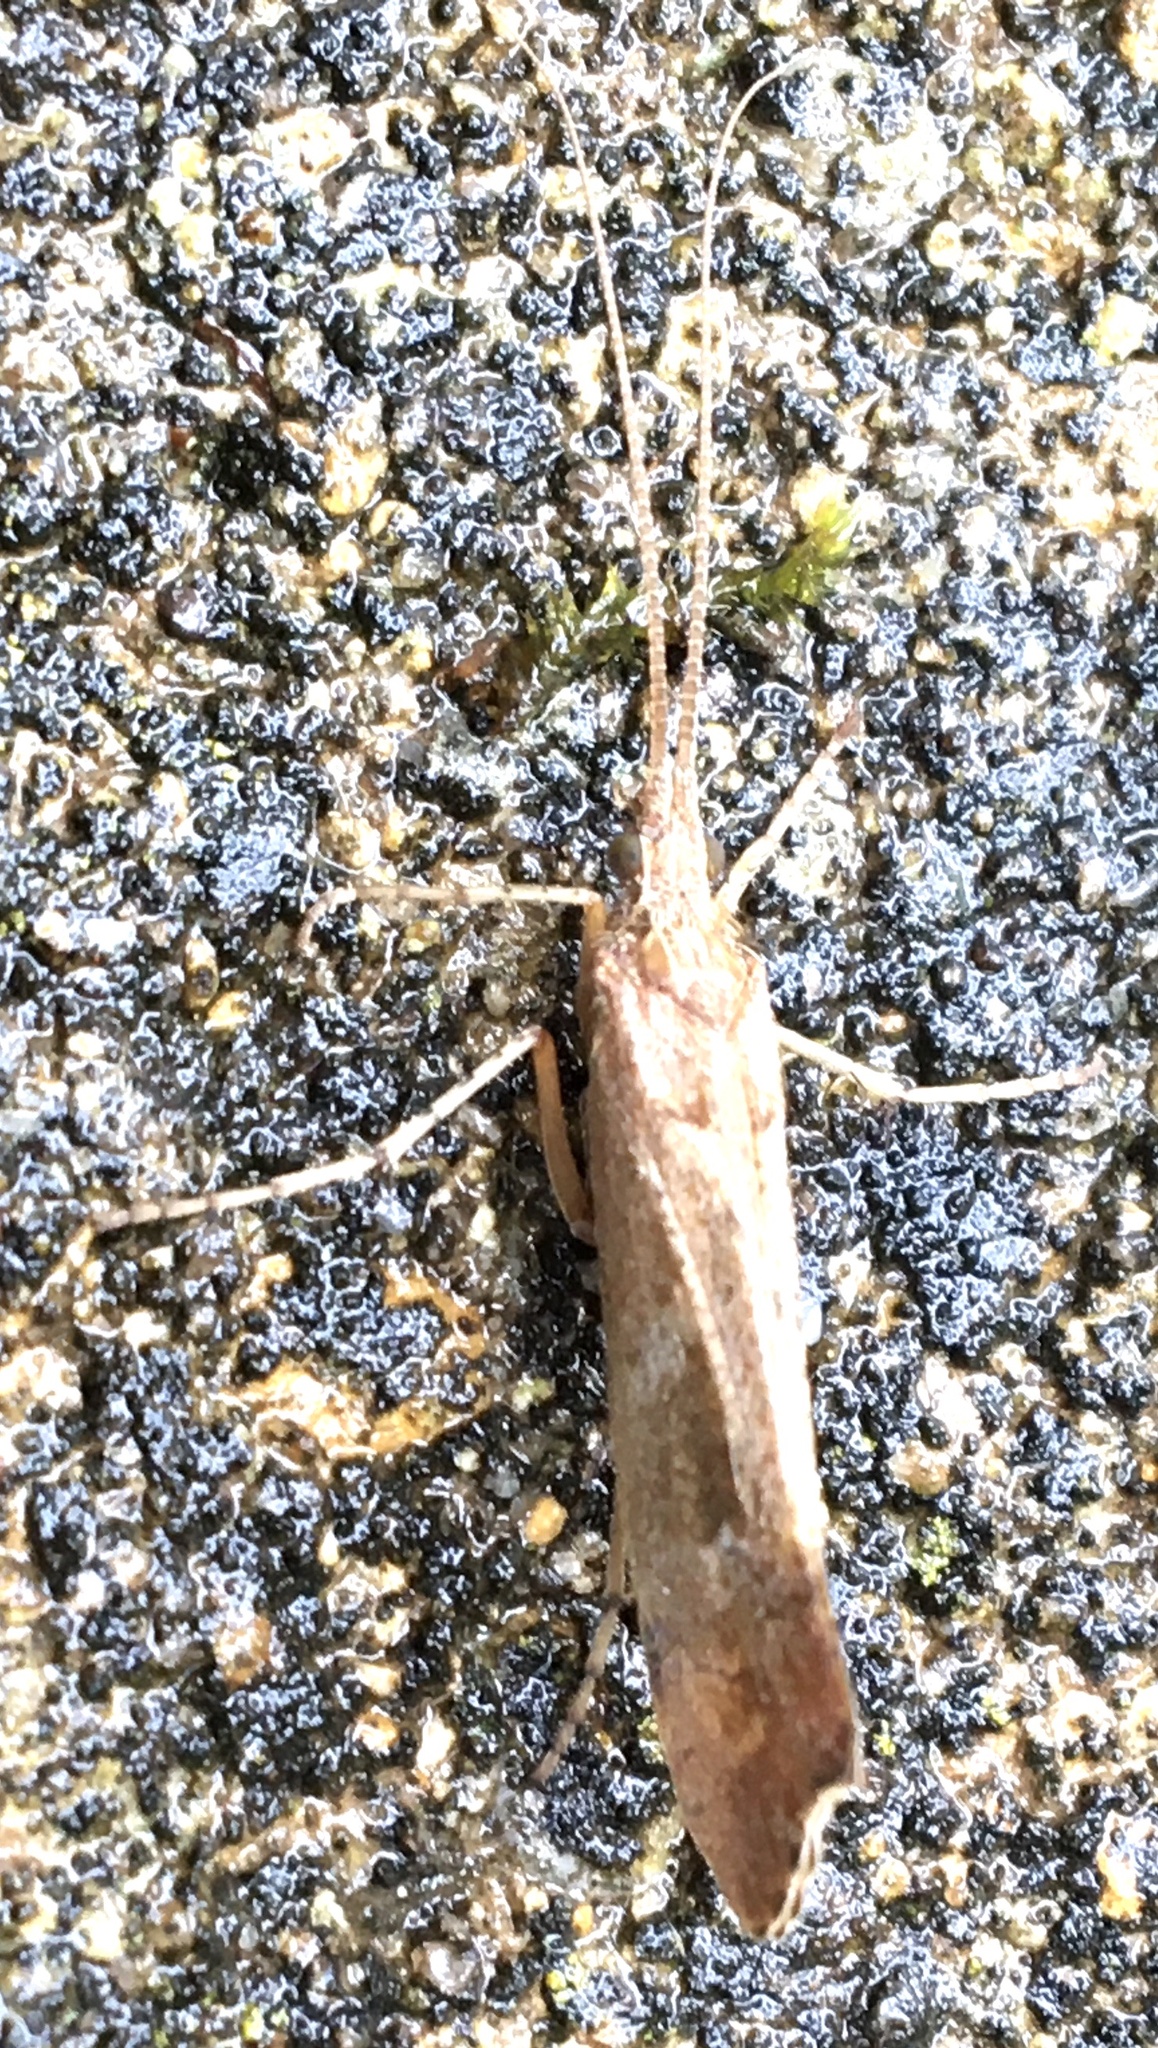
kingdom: Animalia
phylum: Arthropoda
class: Insecta
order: Trichoptera
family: Limnephilidae
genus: Glyphotaelius
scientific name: Glyphotaelius pellucidus
